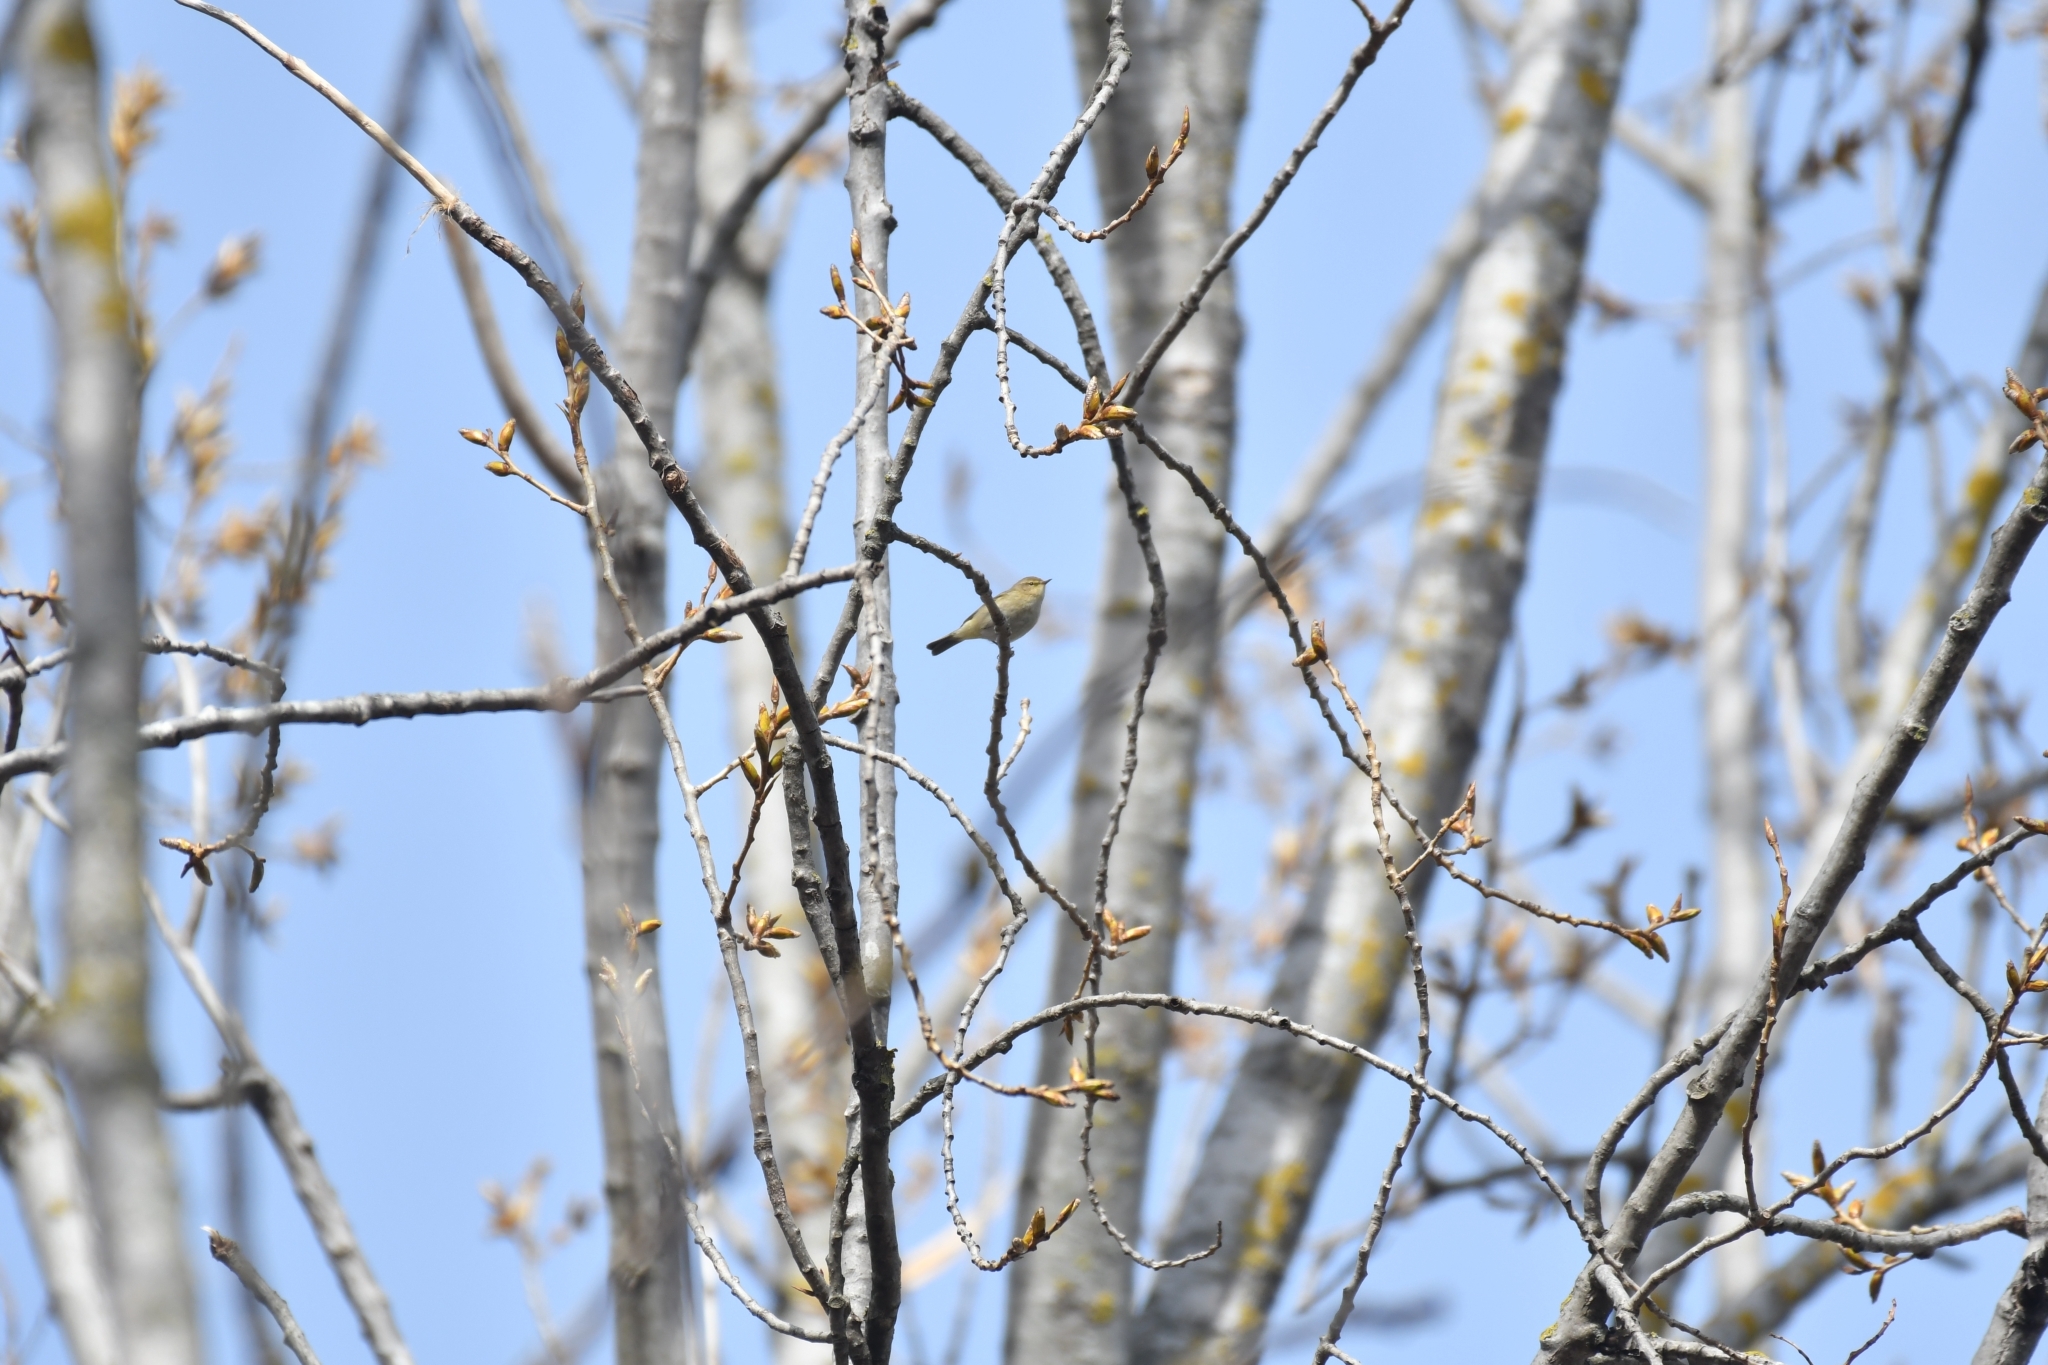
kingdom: Animalia
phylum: Chordata
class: Aves
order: Passeriformes
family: Phylloscopidae
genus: Phylloscopus
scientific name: Phylloscopus collybita
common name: Common chiffchaff
